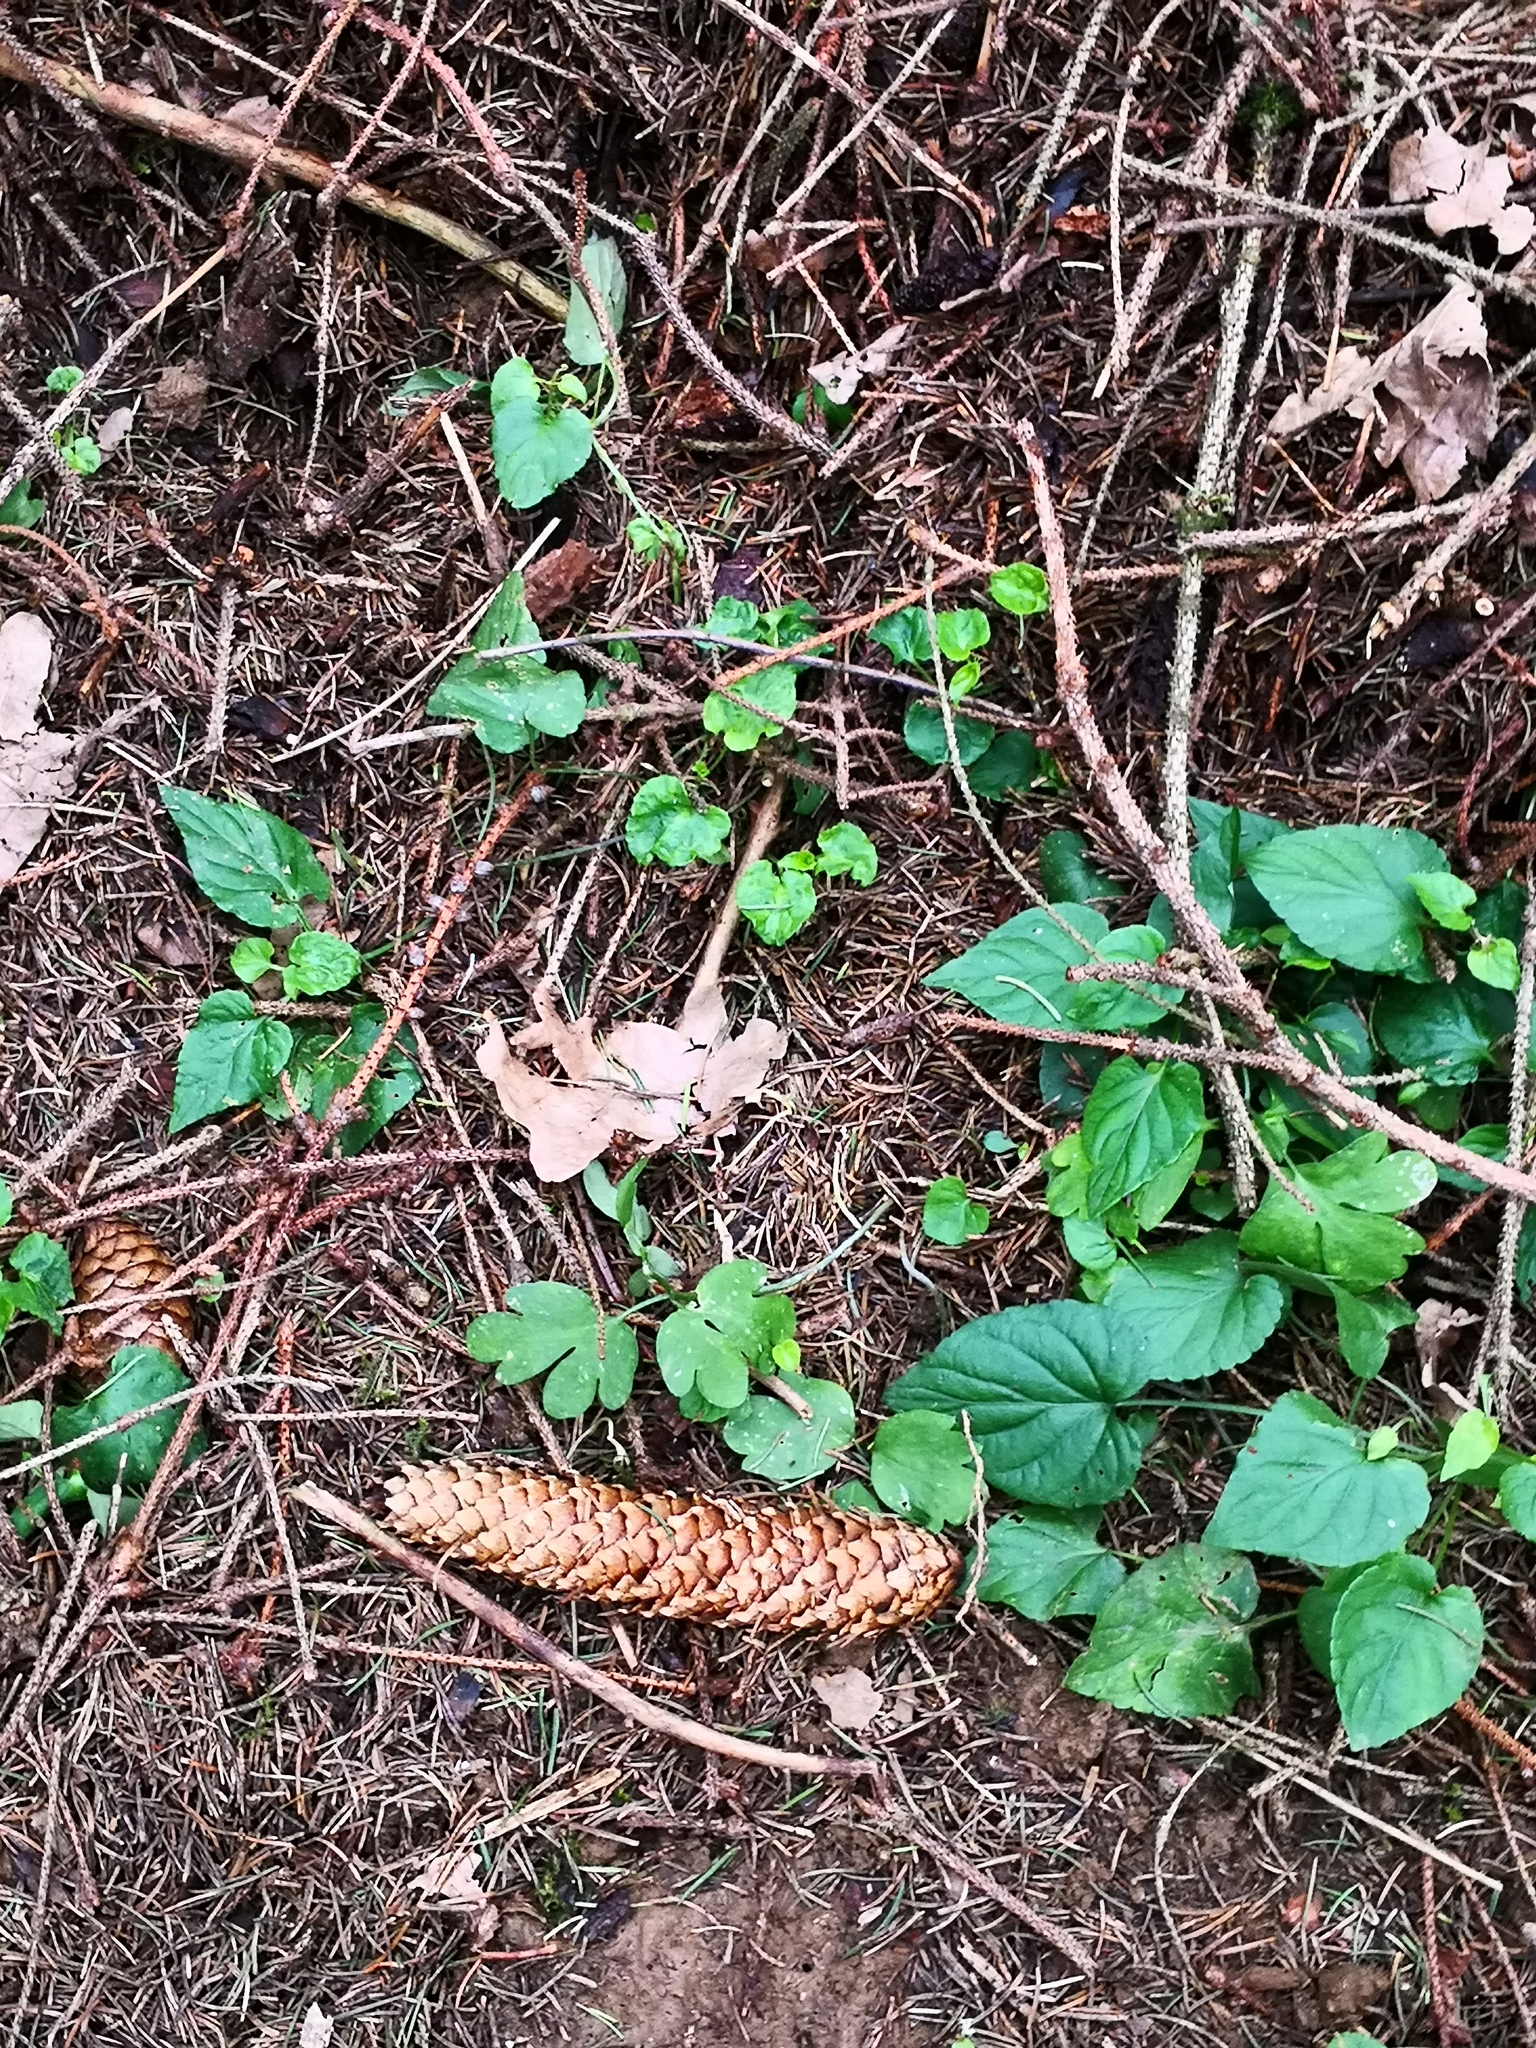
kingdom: Plantae
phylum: Tracheophyta
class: Pinopsida
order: Pinales
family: Pinaceae
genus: Picea
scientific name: Picea abies
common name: Norway spruce
